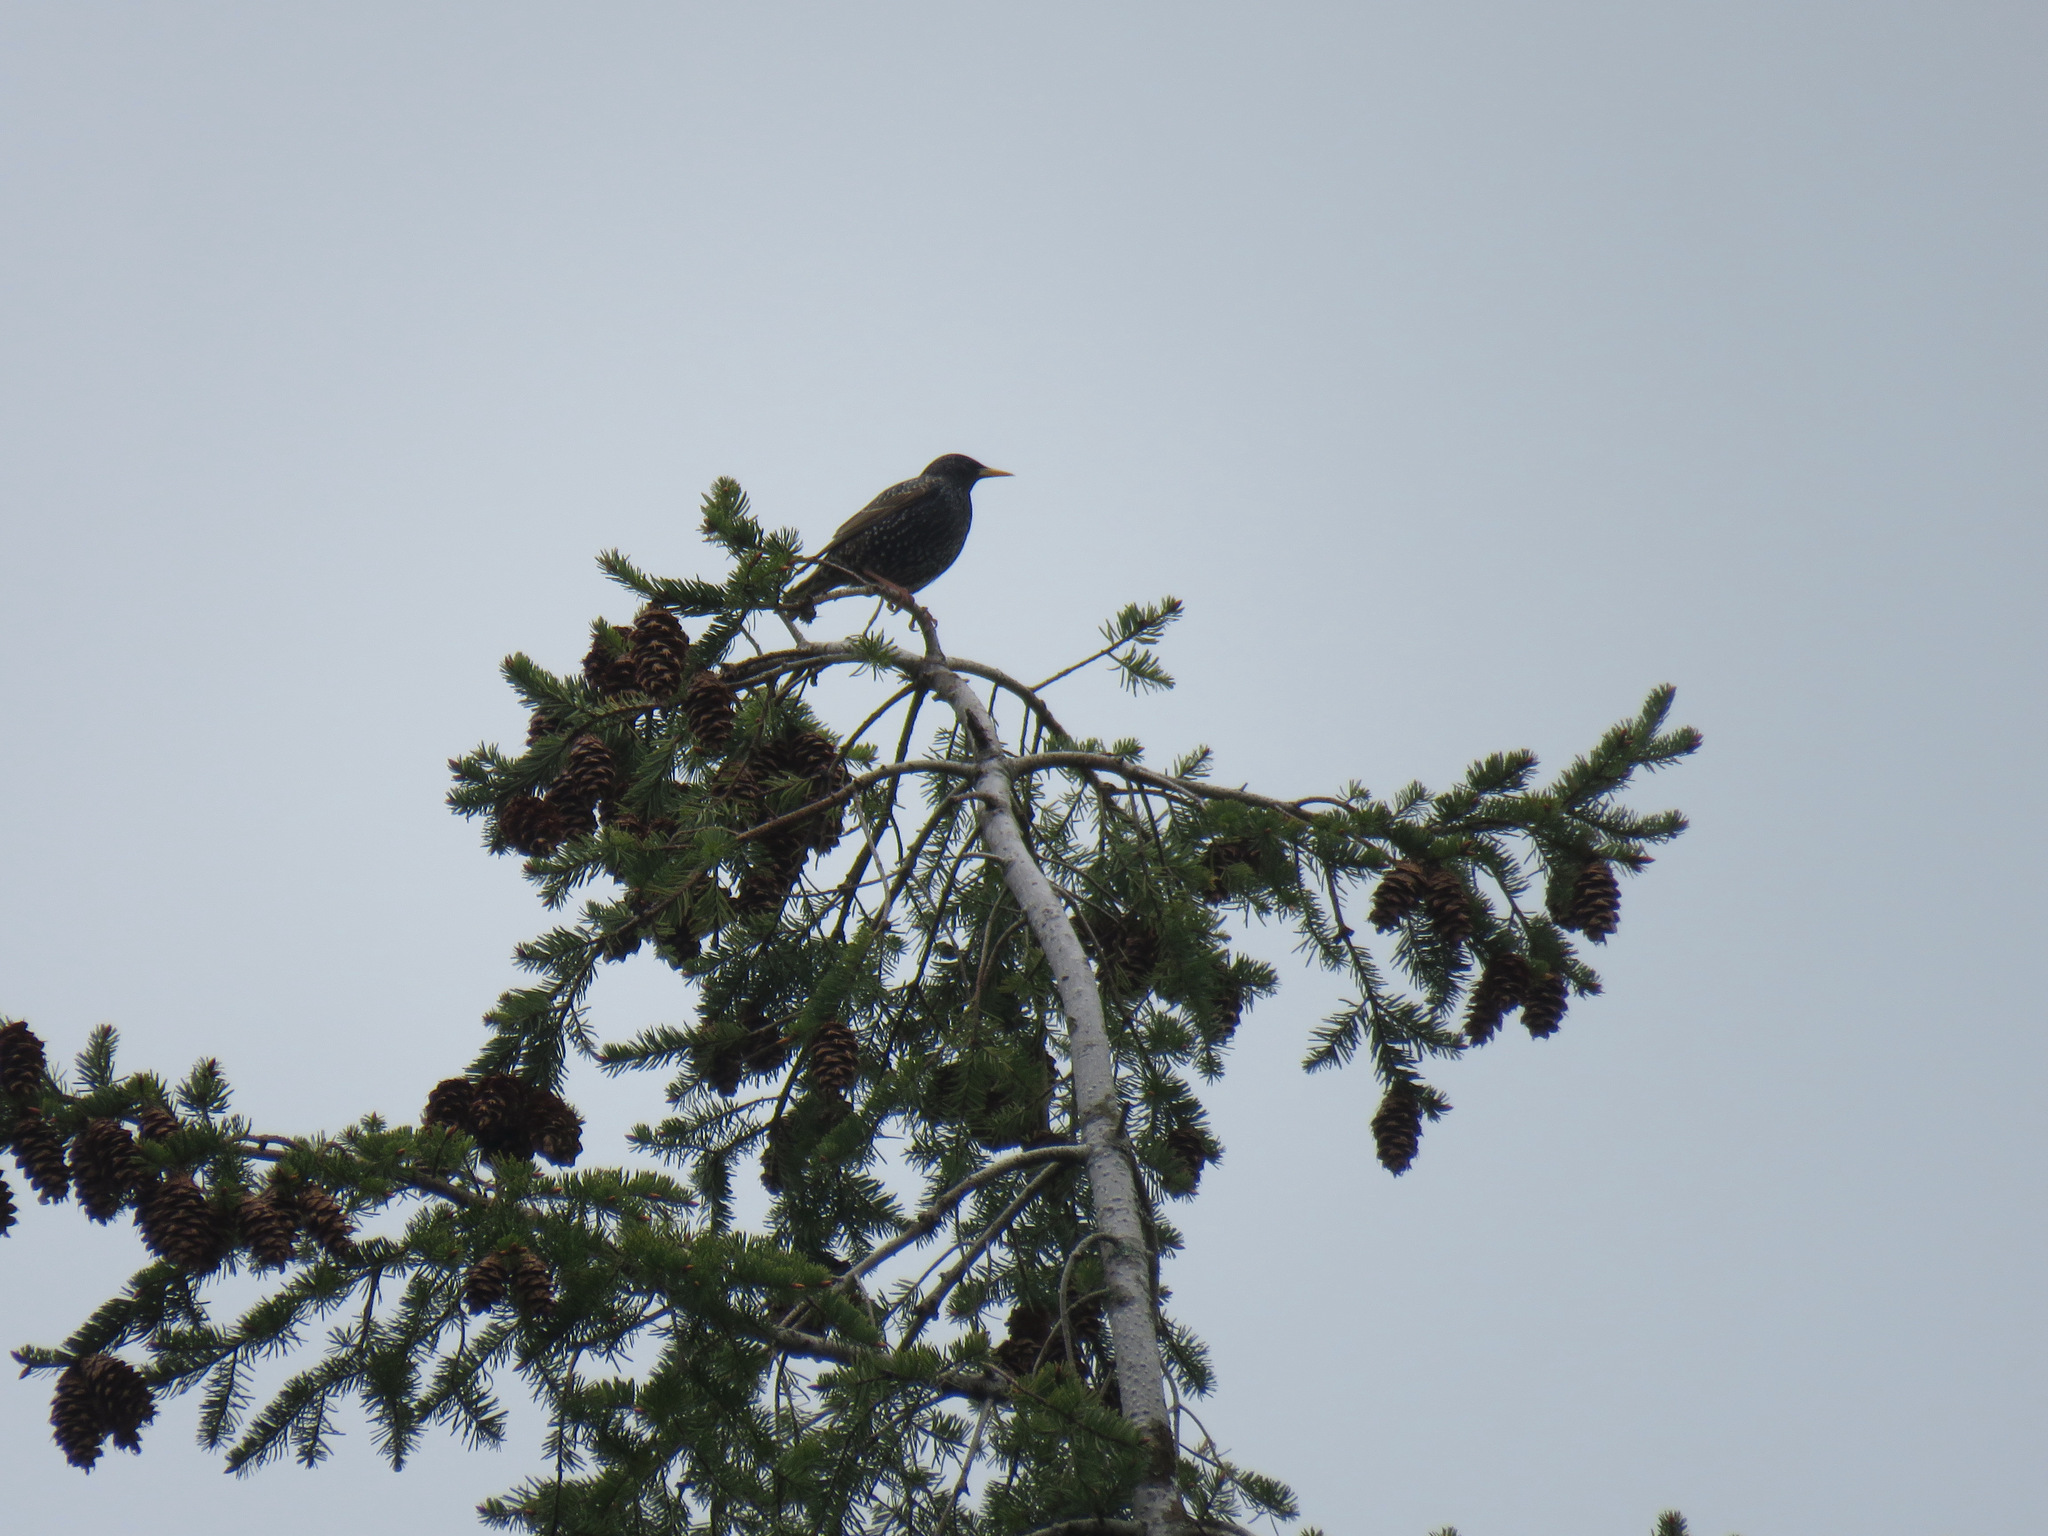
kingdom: Animalia
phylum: Chordata
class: Aves
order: Passeriformes
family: Sturnidae
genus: Sturnus
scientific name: Sturnus vulgaris
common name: Common starling
